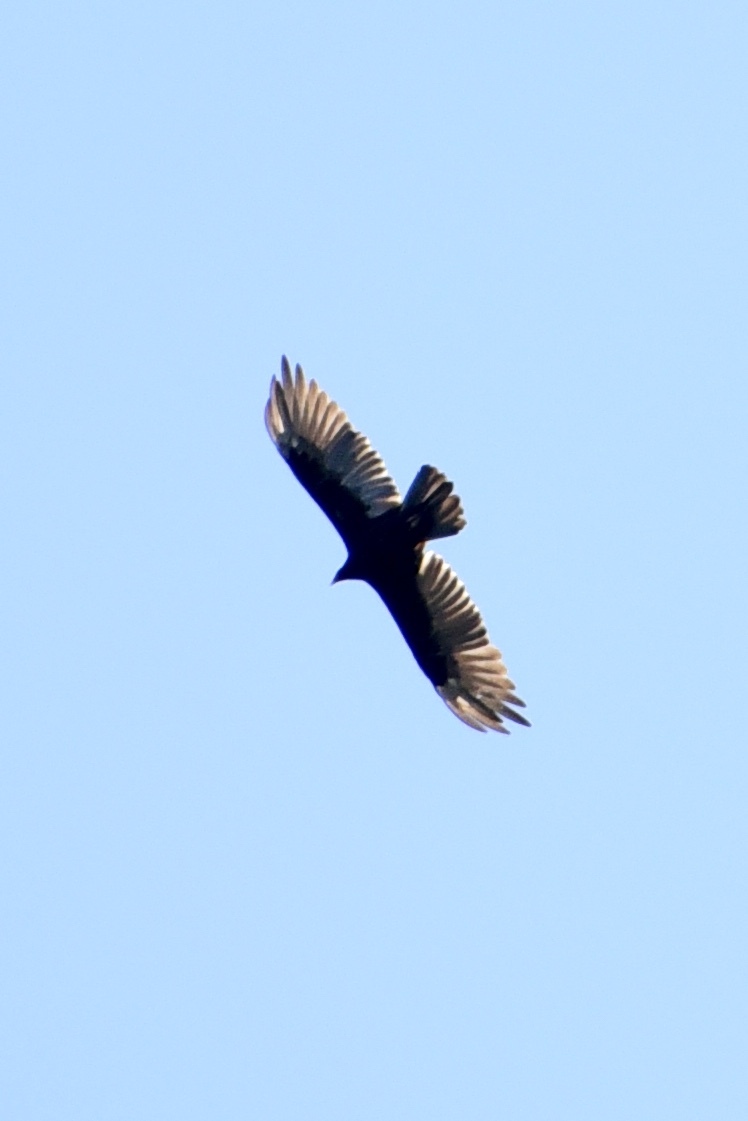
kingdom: Animalia
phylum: Chordata
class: Aves
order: Accipitriformes
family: Cathartidae
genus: Cathartes
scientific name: Cathartes aura
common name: Turkey vulture
